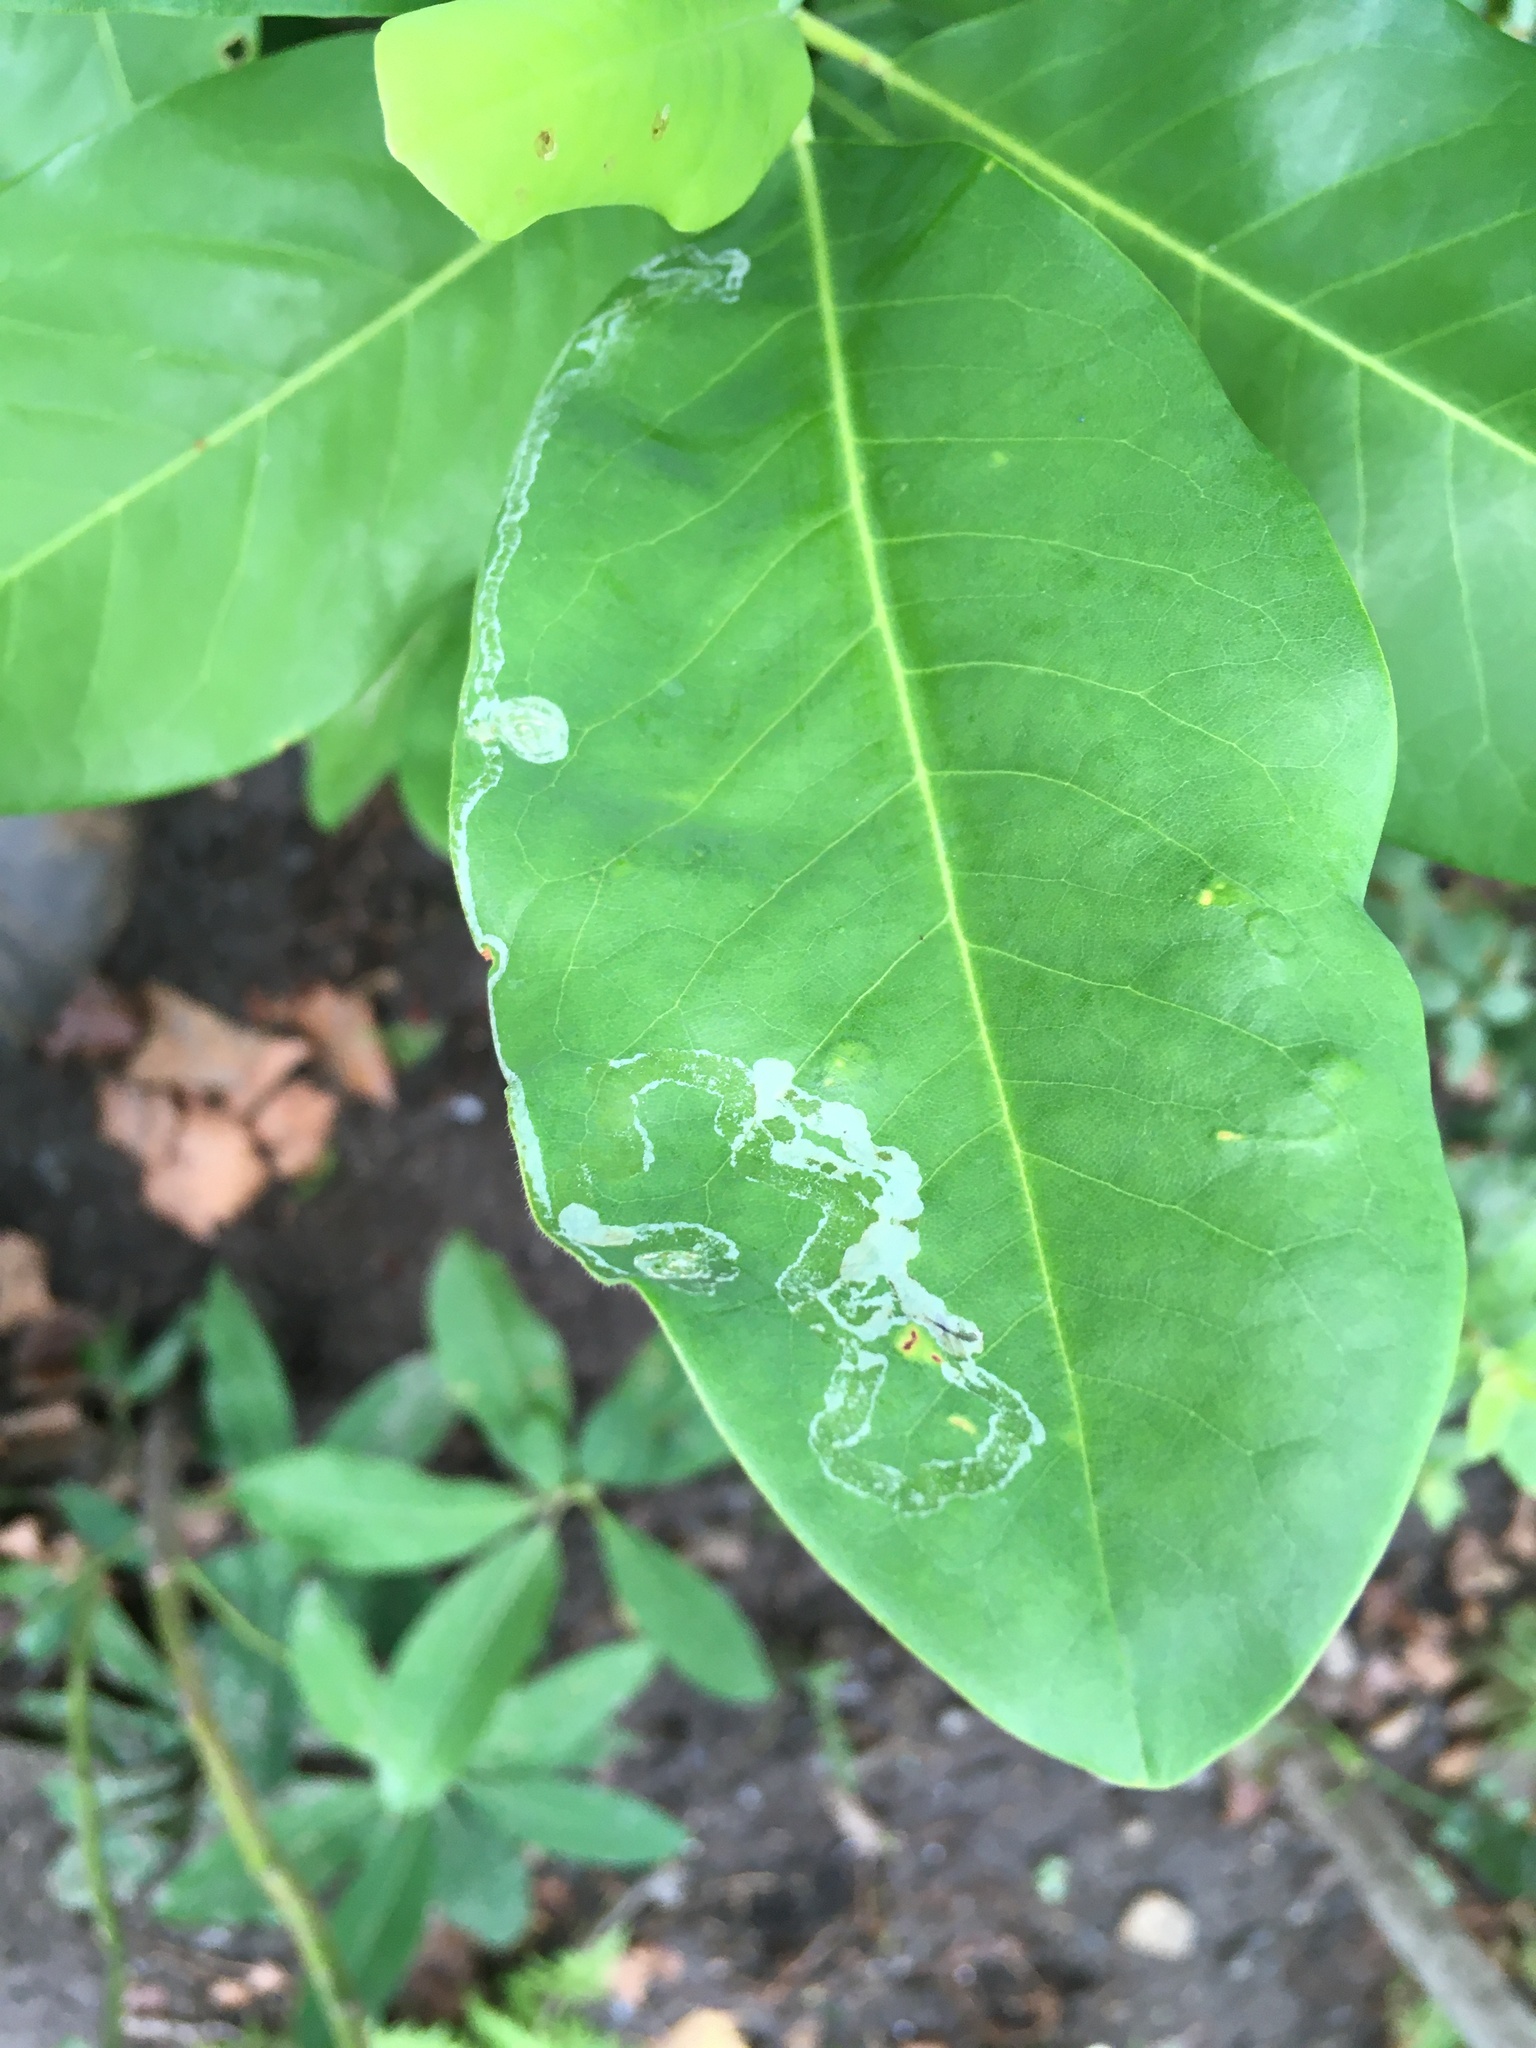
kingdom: Animalia
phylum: Arthropoda
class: Insecta
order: Lepidoptera
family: Gracillariidae
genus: Phyllocnistis
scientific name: Phyllocnistis liriodendronella
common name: Tulip tree leaf miner
